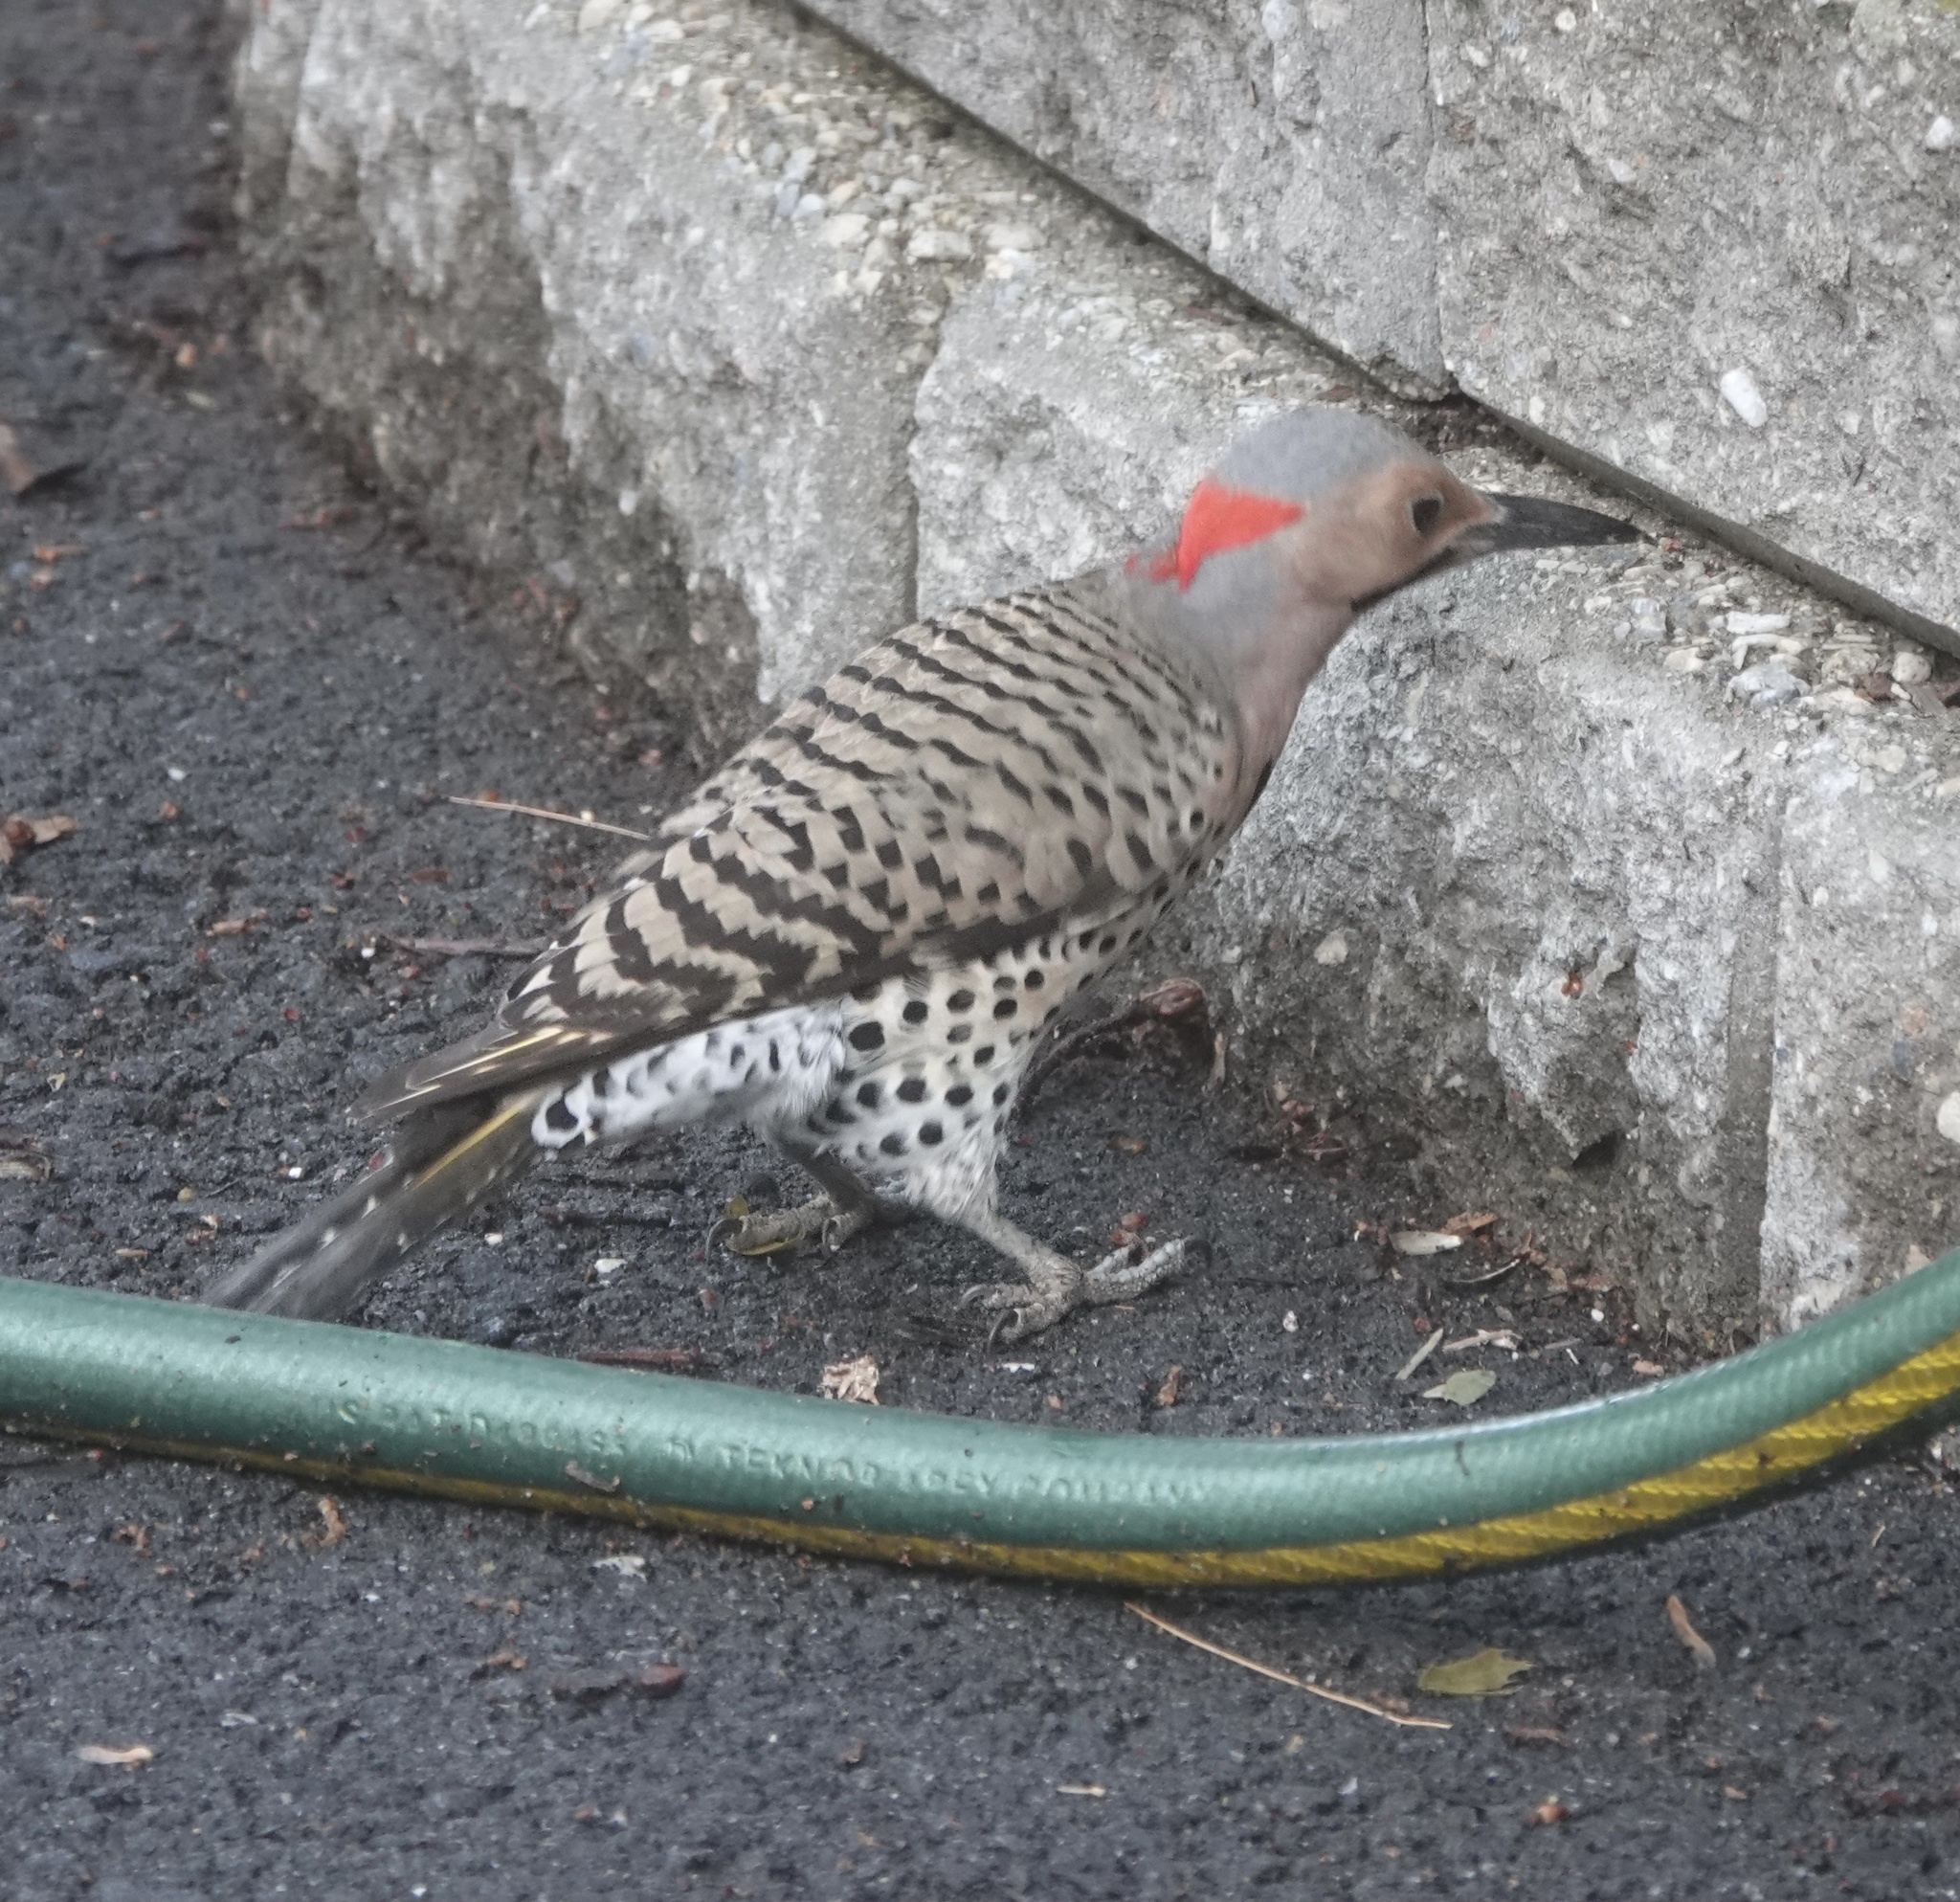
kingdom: Animalia
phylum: Chordata
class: Aves
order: Piciformes
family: Picidae
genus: Colaptes
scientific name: Colaptes auratus
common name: Northern flicker
